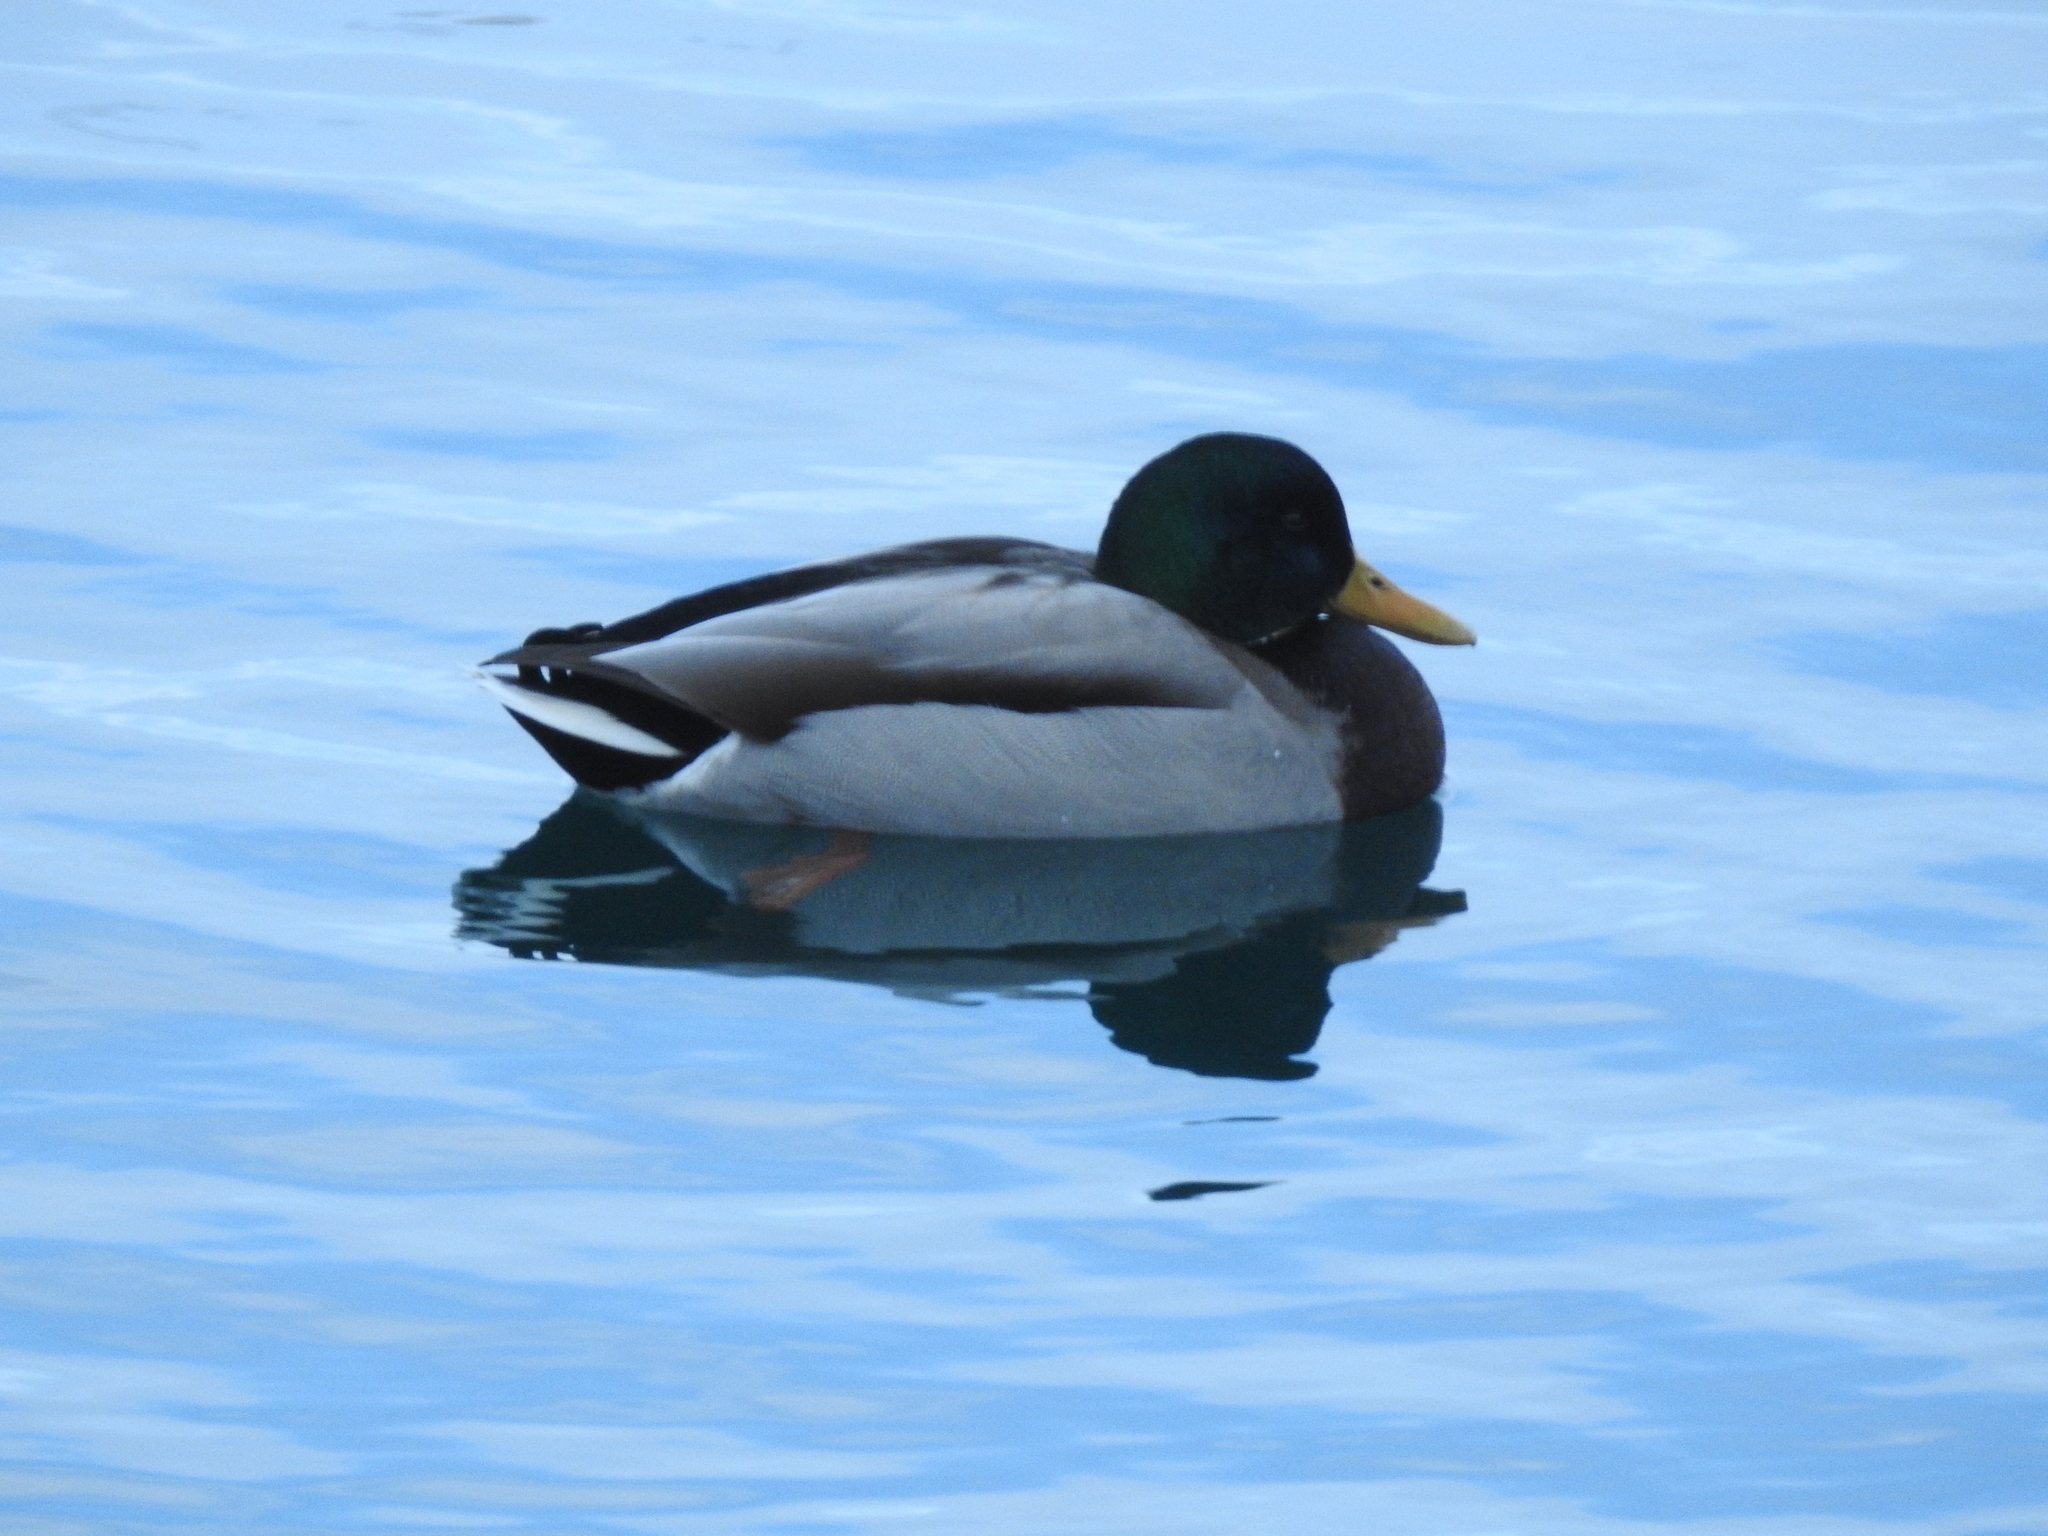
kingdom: Animalia
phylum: Chordata
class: Aves
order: Anseriformes
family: Anatidae
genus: Anas
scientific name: Anas platyrhynchos
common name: Mallard
